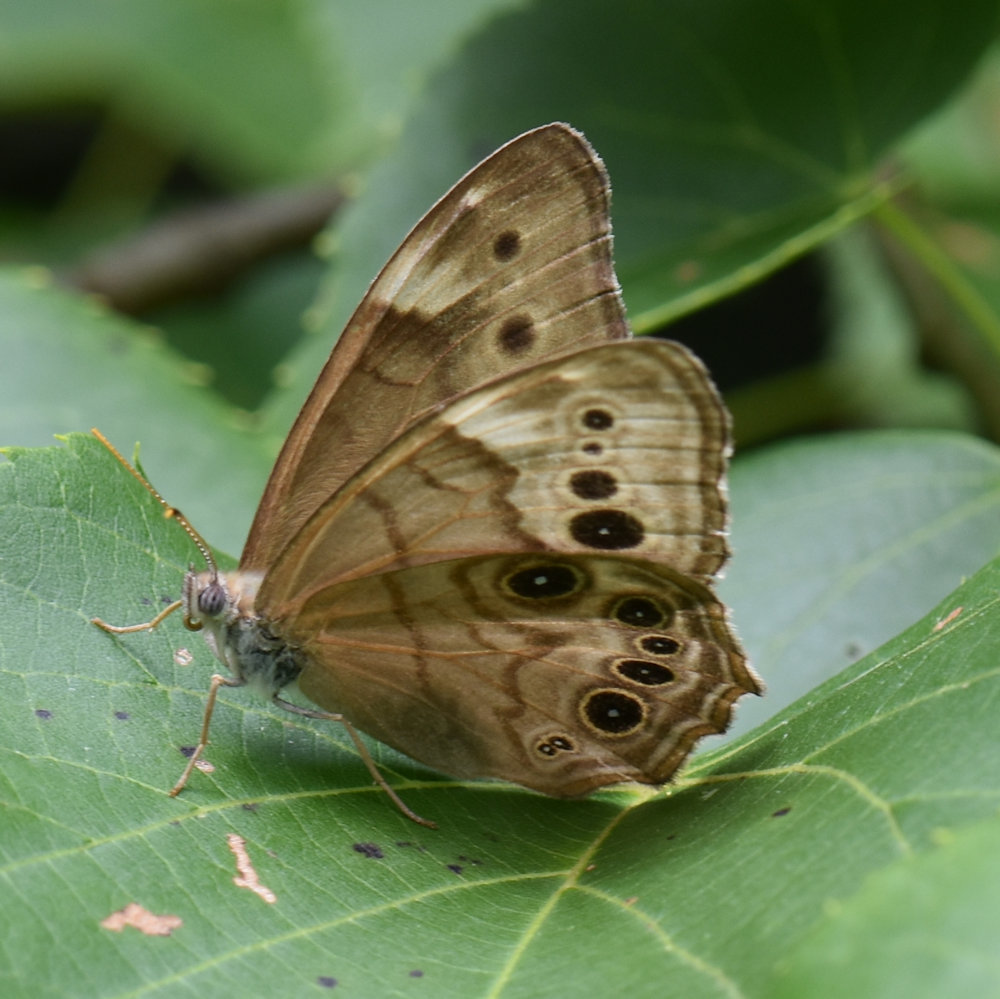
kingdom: Animalia
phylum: Arthropoda
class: Insecta
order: Lepidoptera
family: Nymphalidae
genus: Lethe
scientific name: Lethe anthedon
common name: Northern pearly-eye
